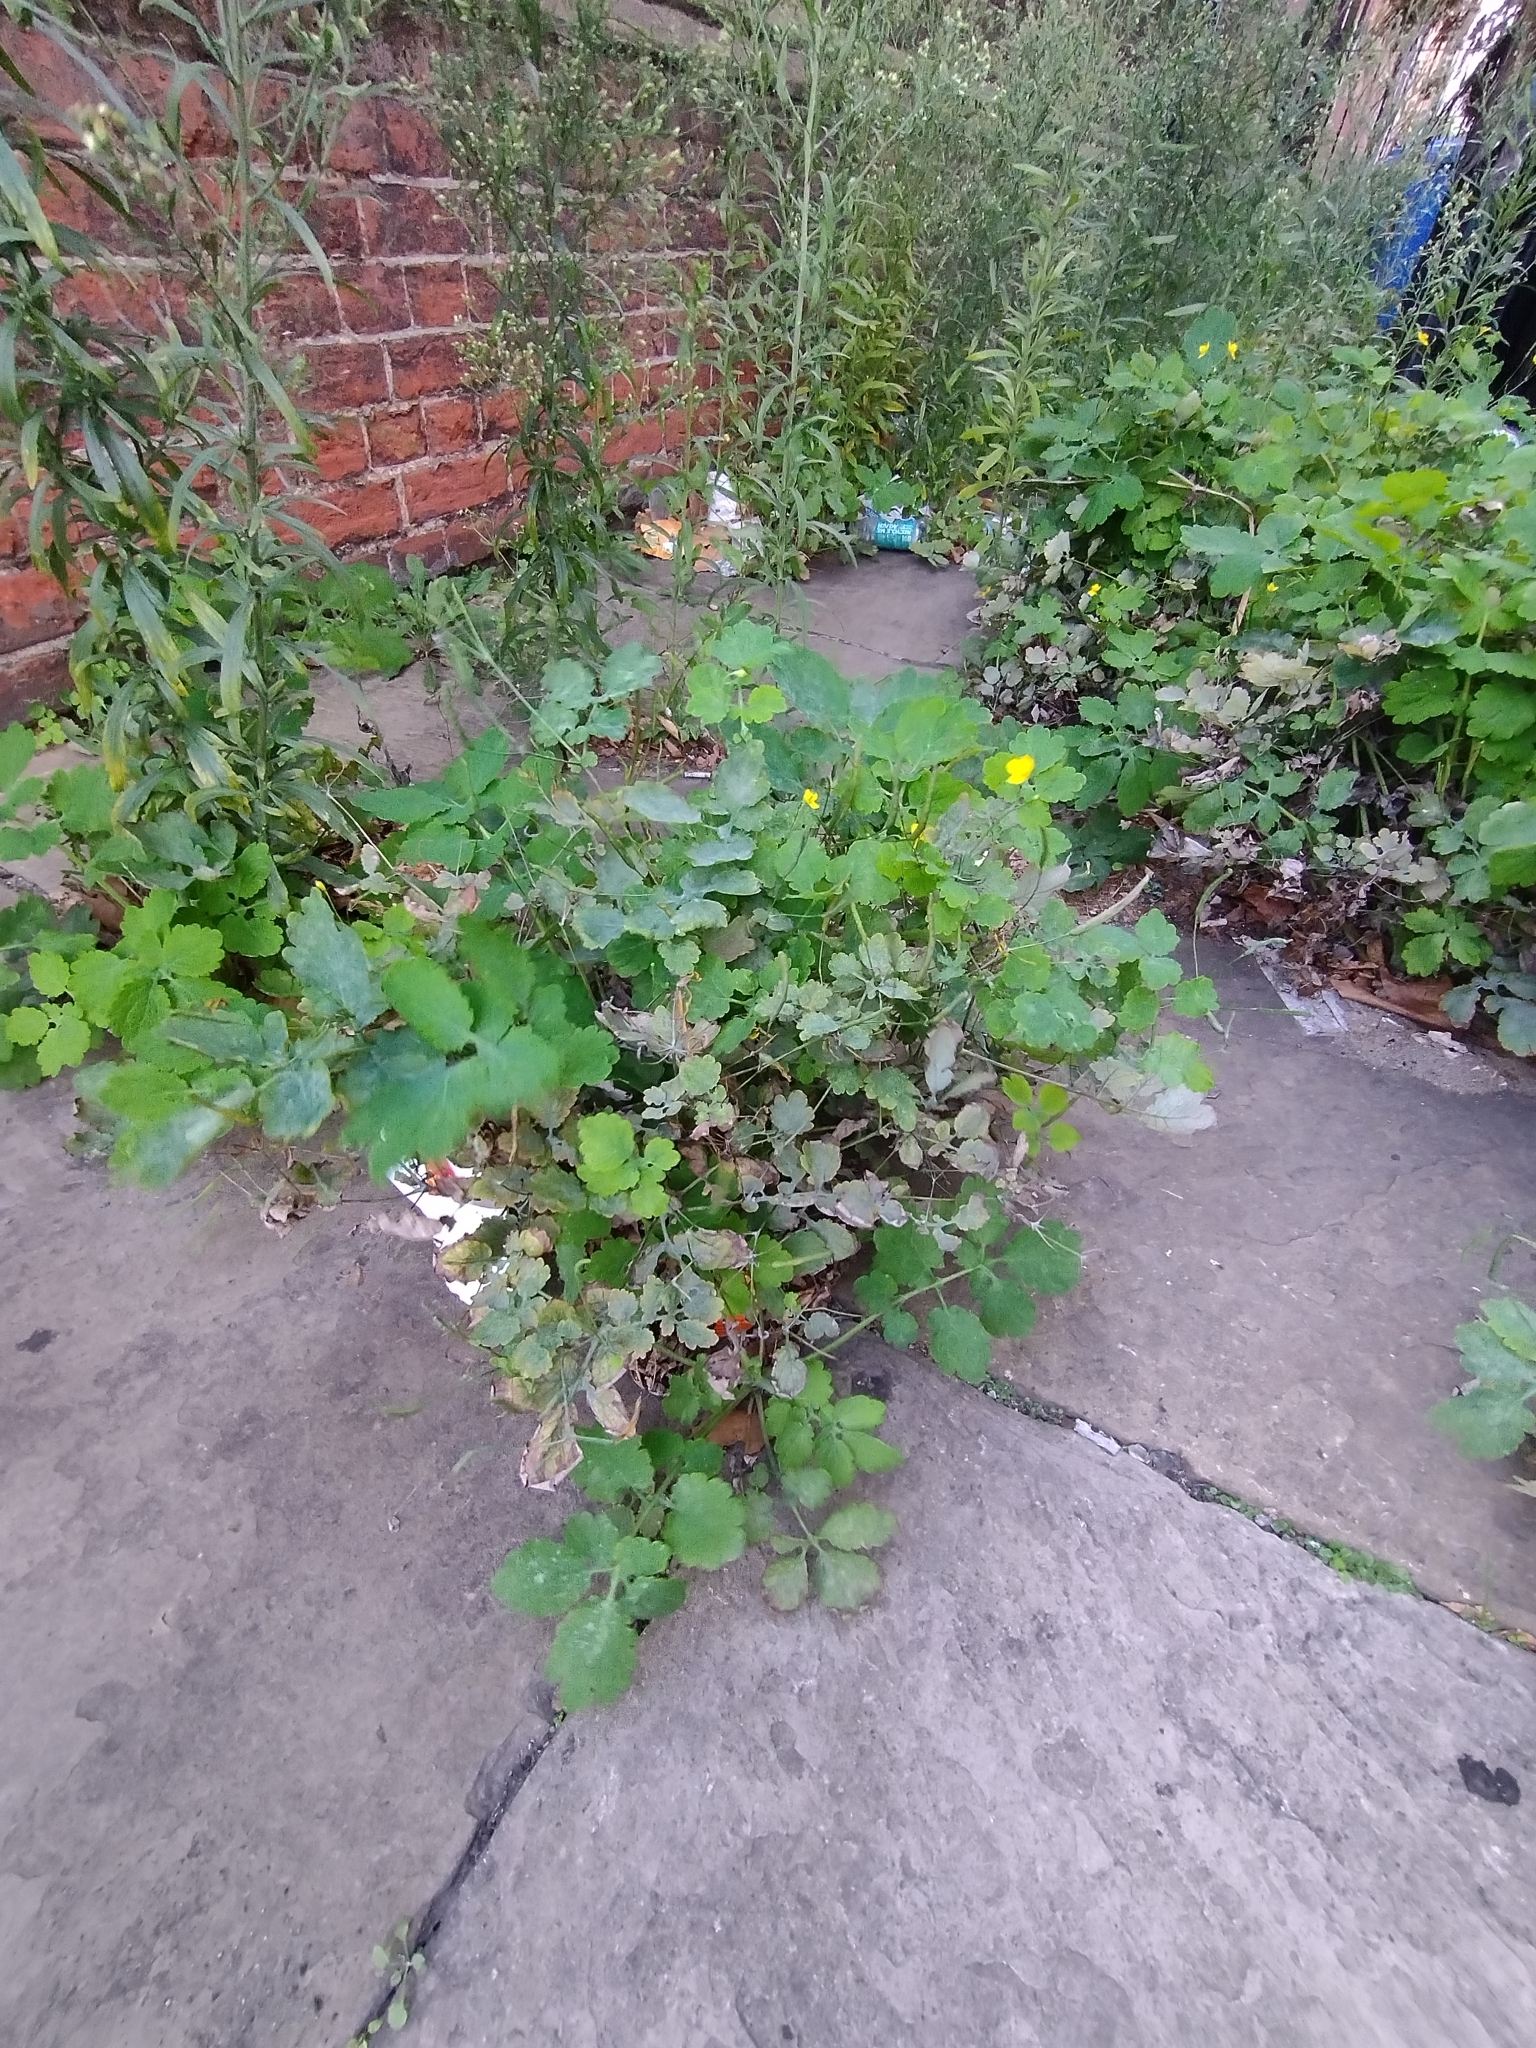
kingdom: Plantae
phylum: Tracheophyta
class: Magnoliopsida
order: Ranunculales
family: Papaveraceae
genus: Chelidonium
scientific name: Chelidonium majus
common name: Greater celandine
